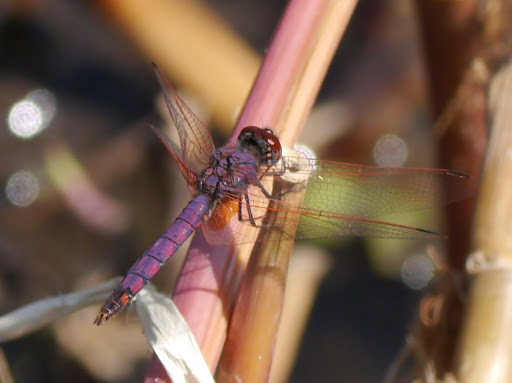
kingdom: Animalia
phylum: Arthropoda
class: Insecta
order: Odonata
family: Libellulidae
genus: Trithemis
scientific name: Trithemis annulata
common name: Violet dropwing
